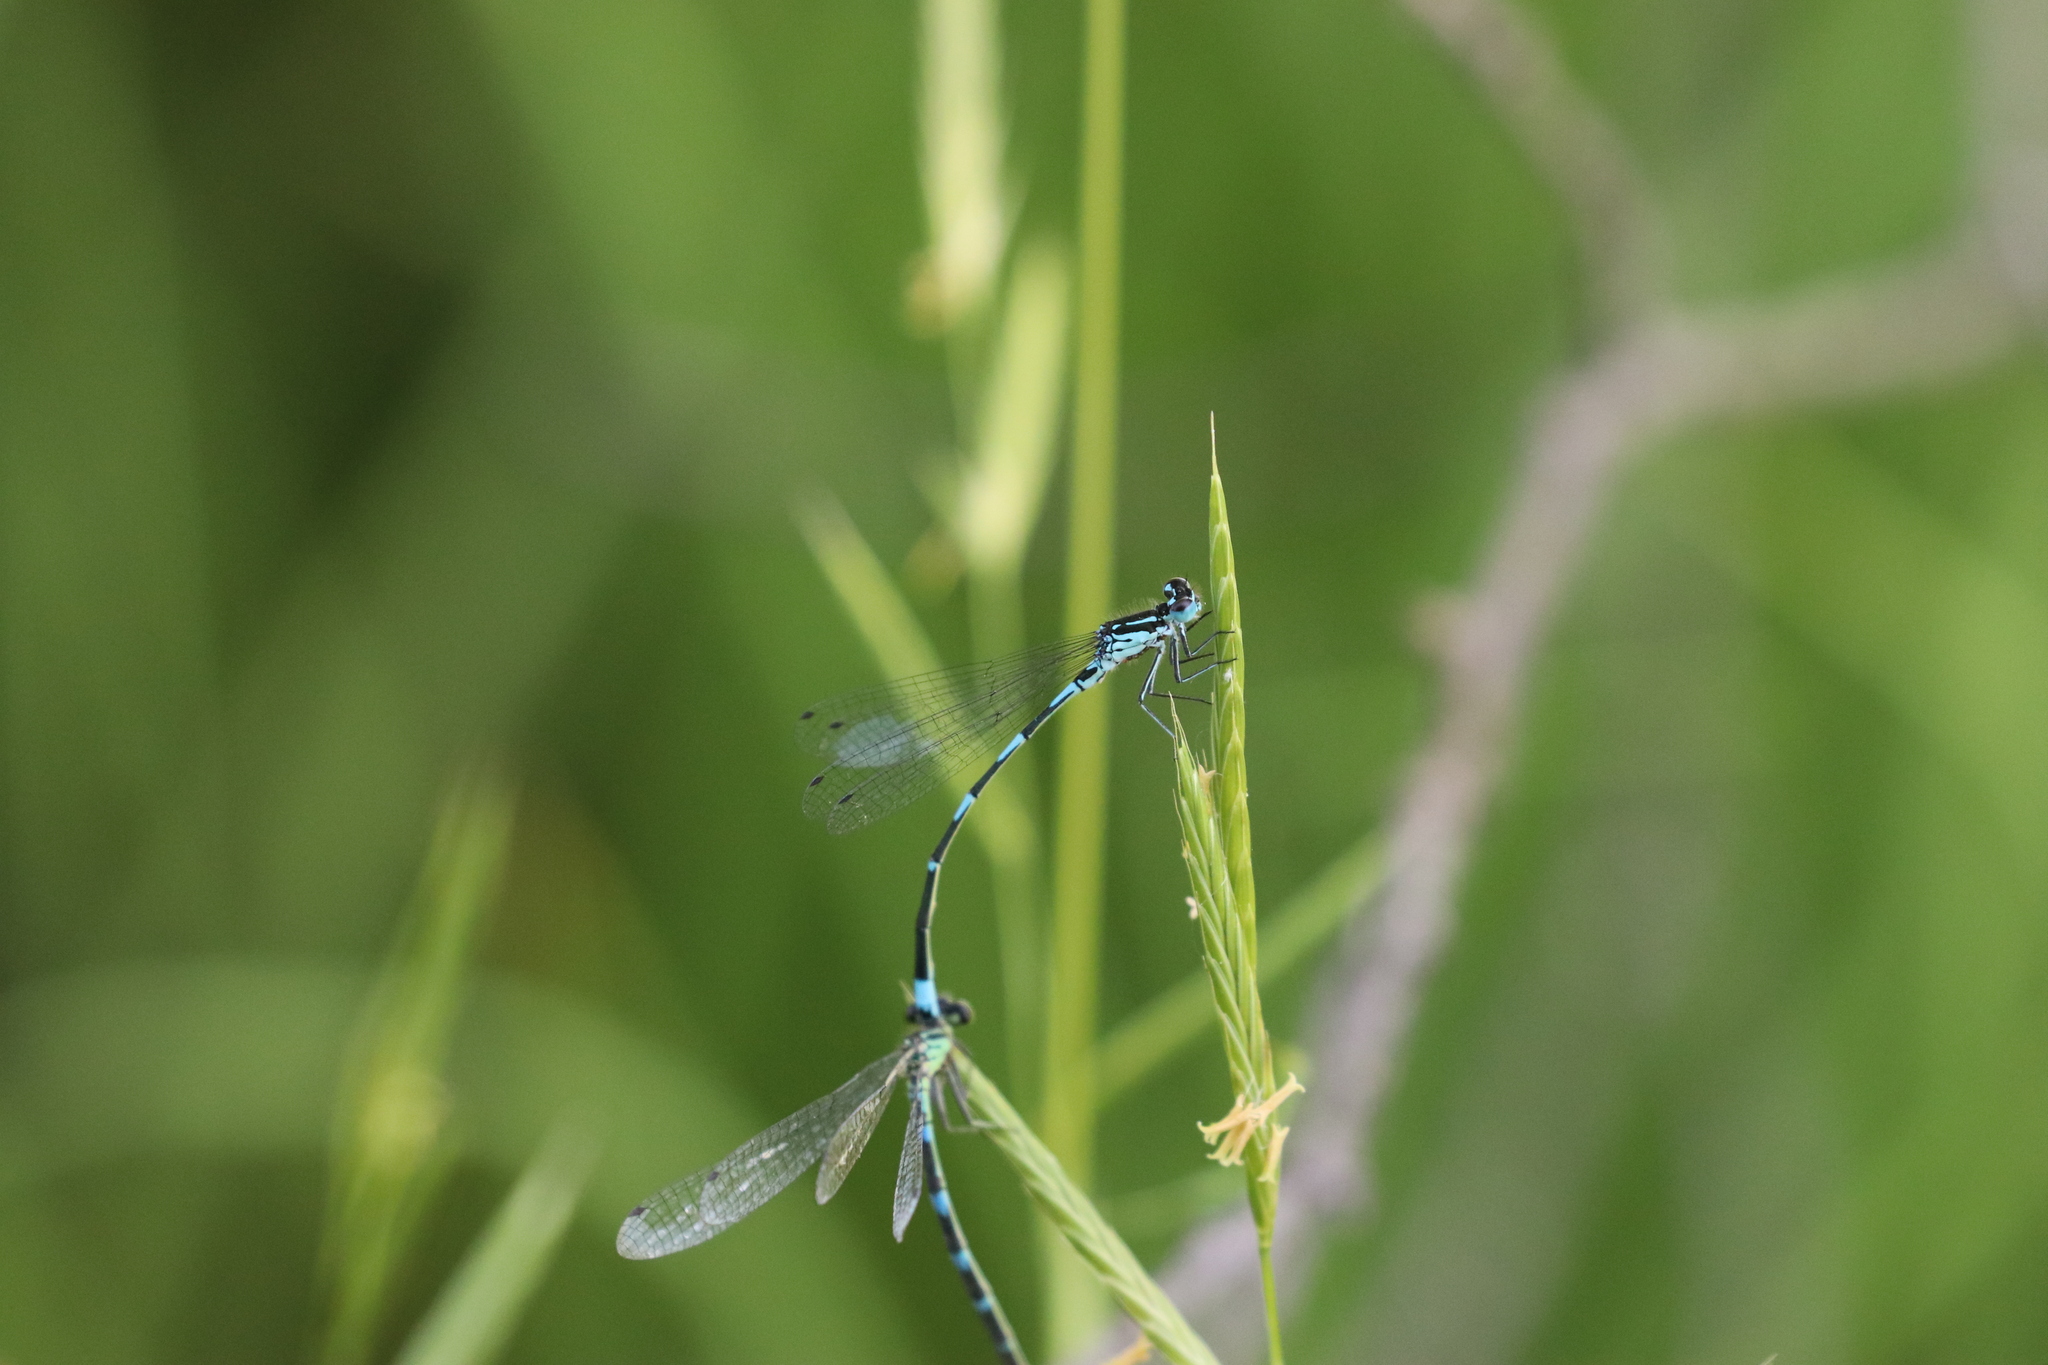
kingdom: Animalia
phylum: Arthropoda
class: Insecta
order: Odonata
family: Coenagrionidae
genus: Coenagrion
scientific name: Coenagrion pulchellum
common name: Variable bluet
